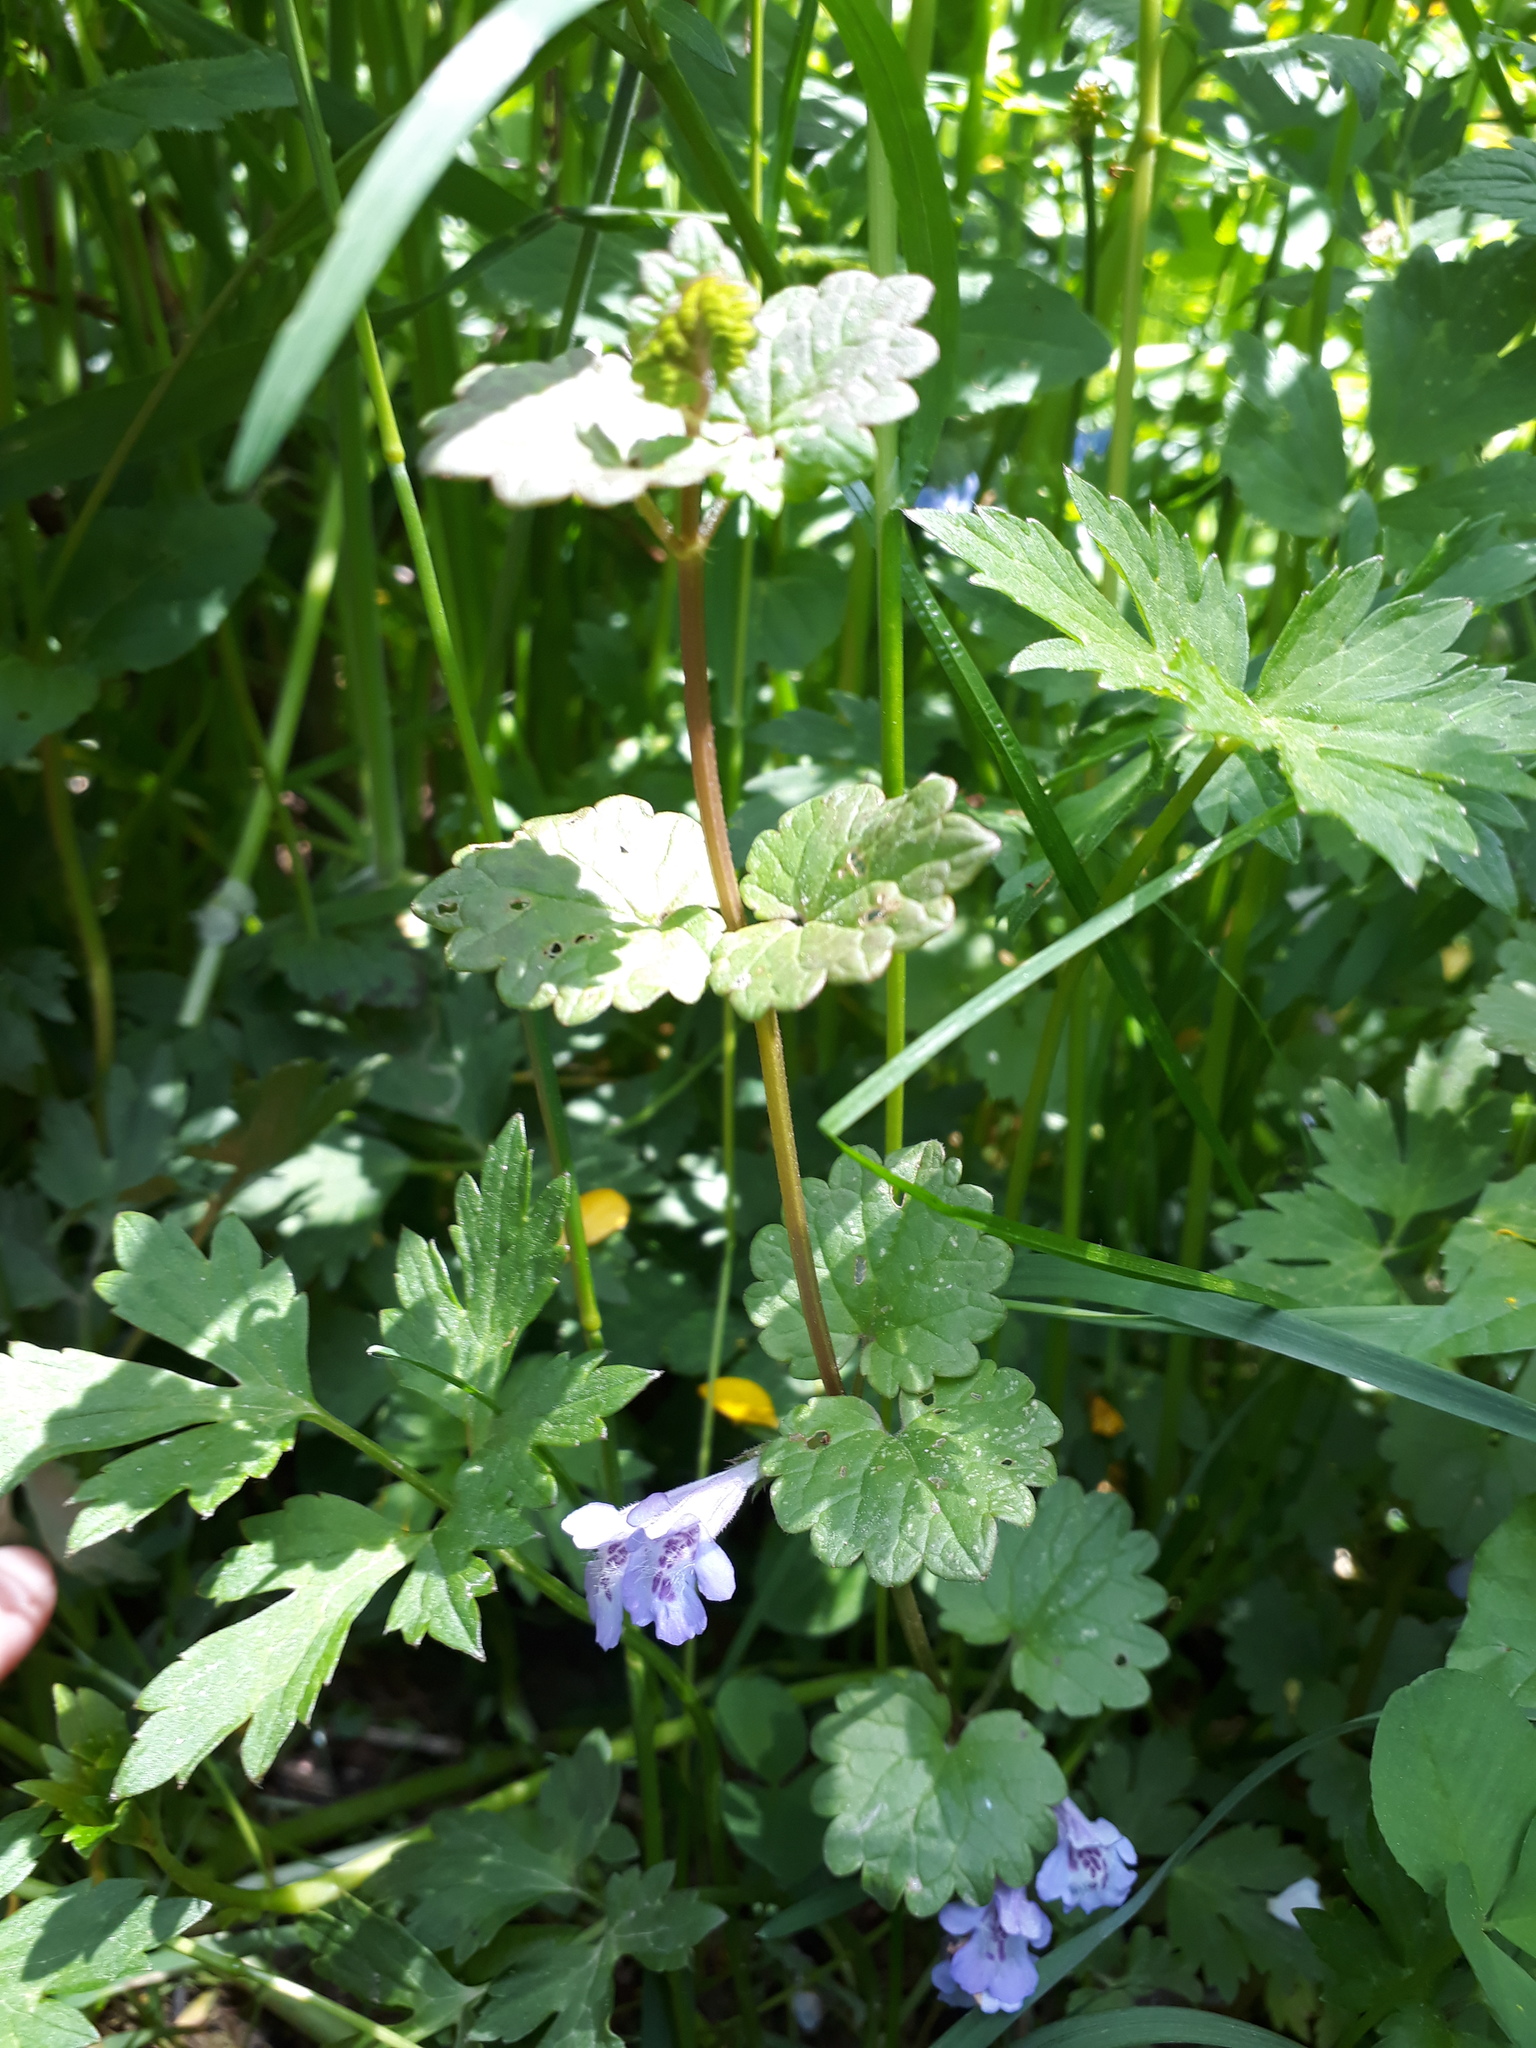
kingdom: Plantae
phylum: Tracheophyta
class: Magnoliopsida
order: Lamiales
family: Lamiaceae
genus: Glechoma
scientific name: Glechoma hederacea
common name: Ground ivy
